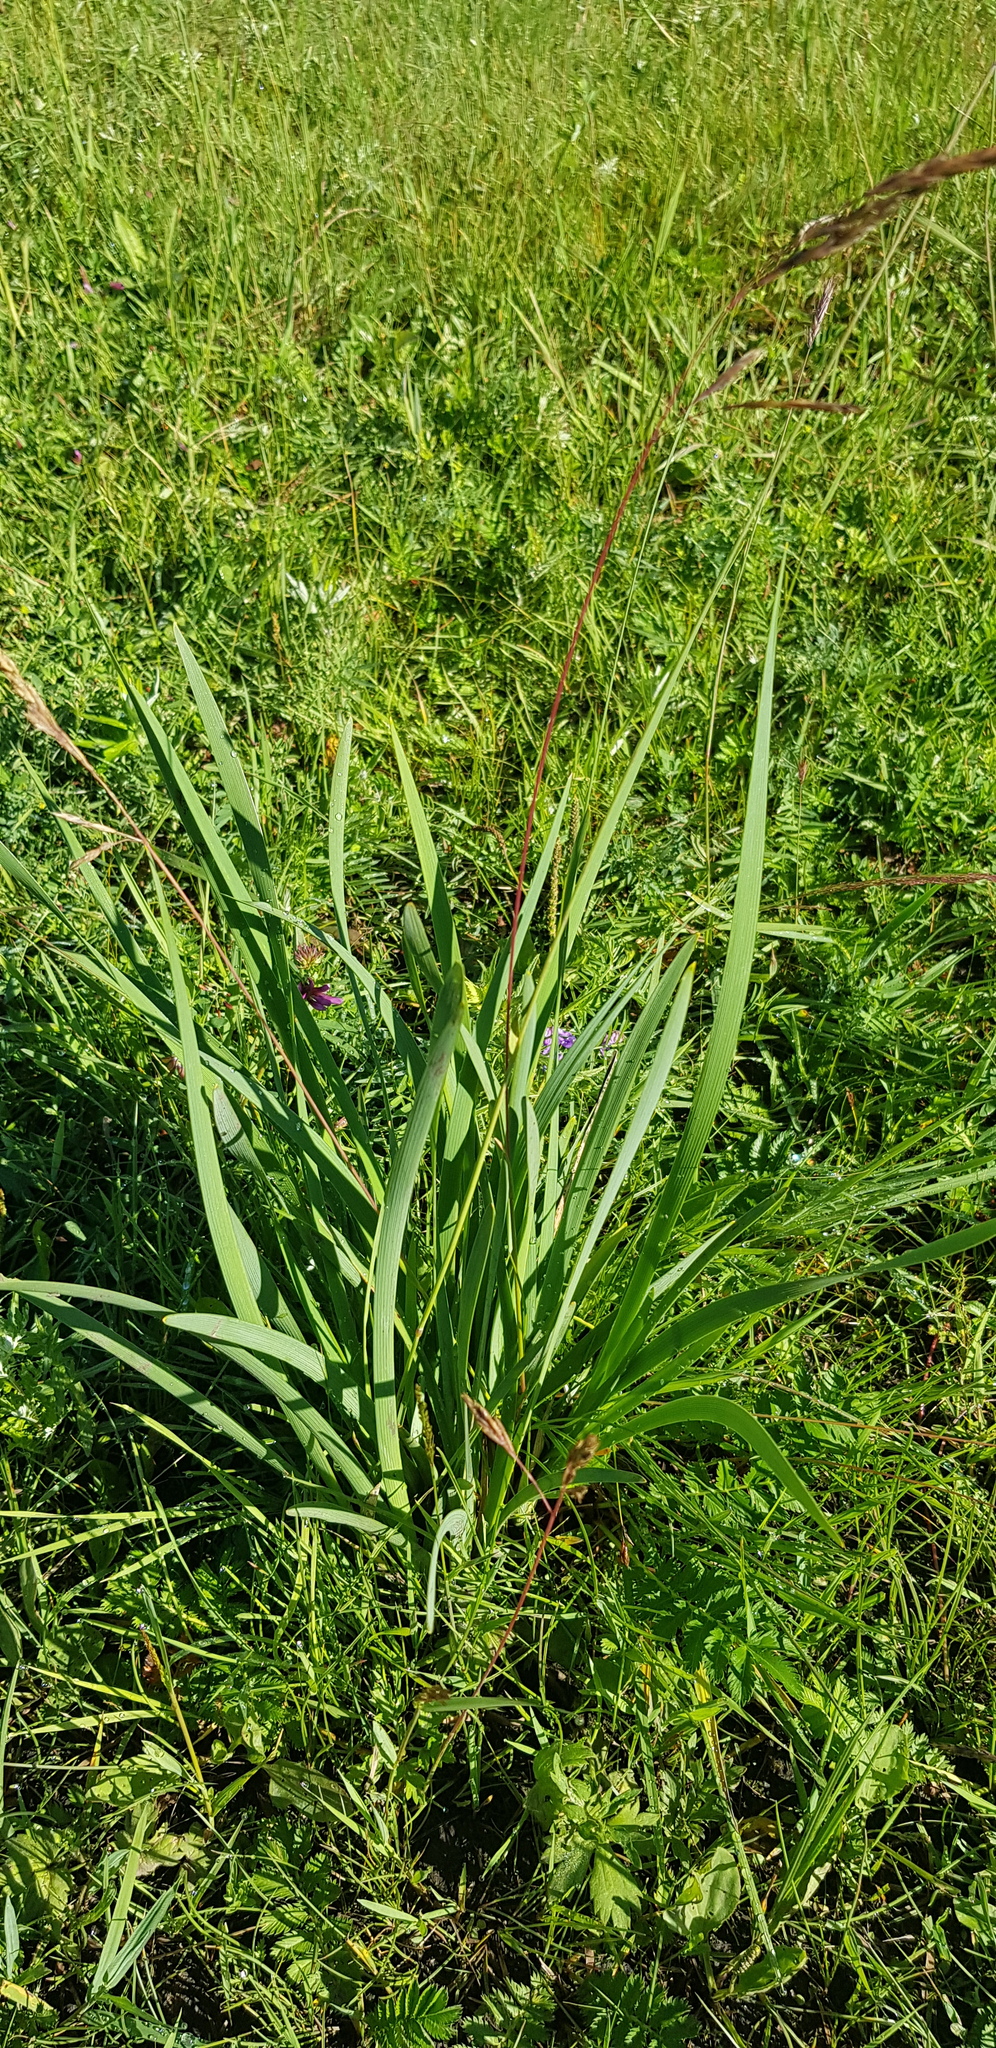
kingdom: Plantae
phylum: Tracheophyta
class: Liliopsida
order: Asparagales
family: Iridaceae
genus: Iris
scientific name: Iris lactea
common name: White-flower chinese iris
